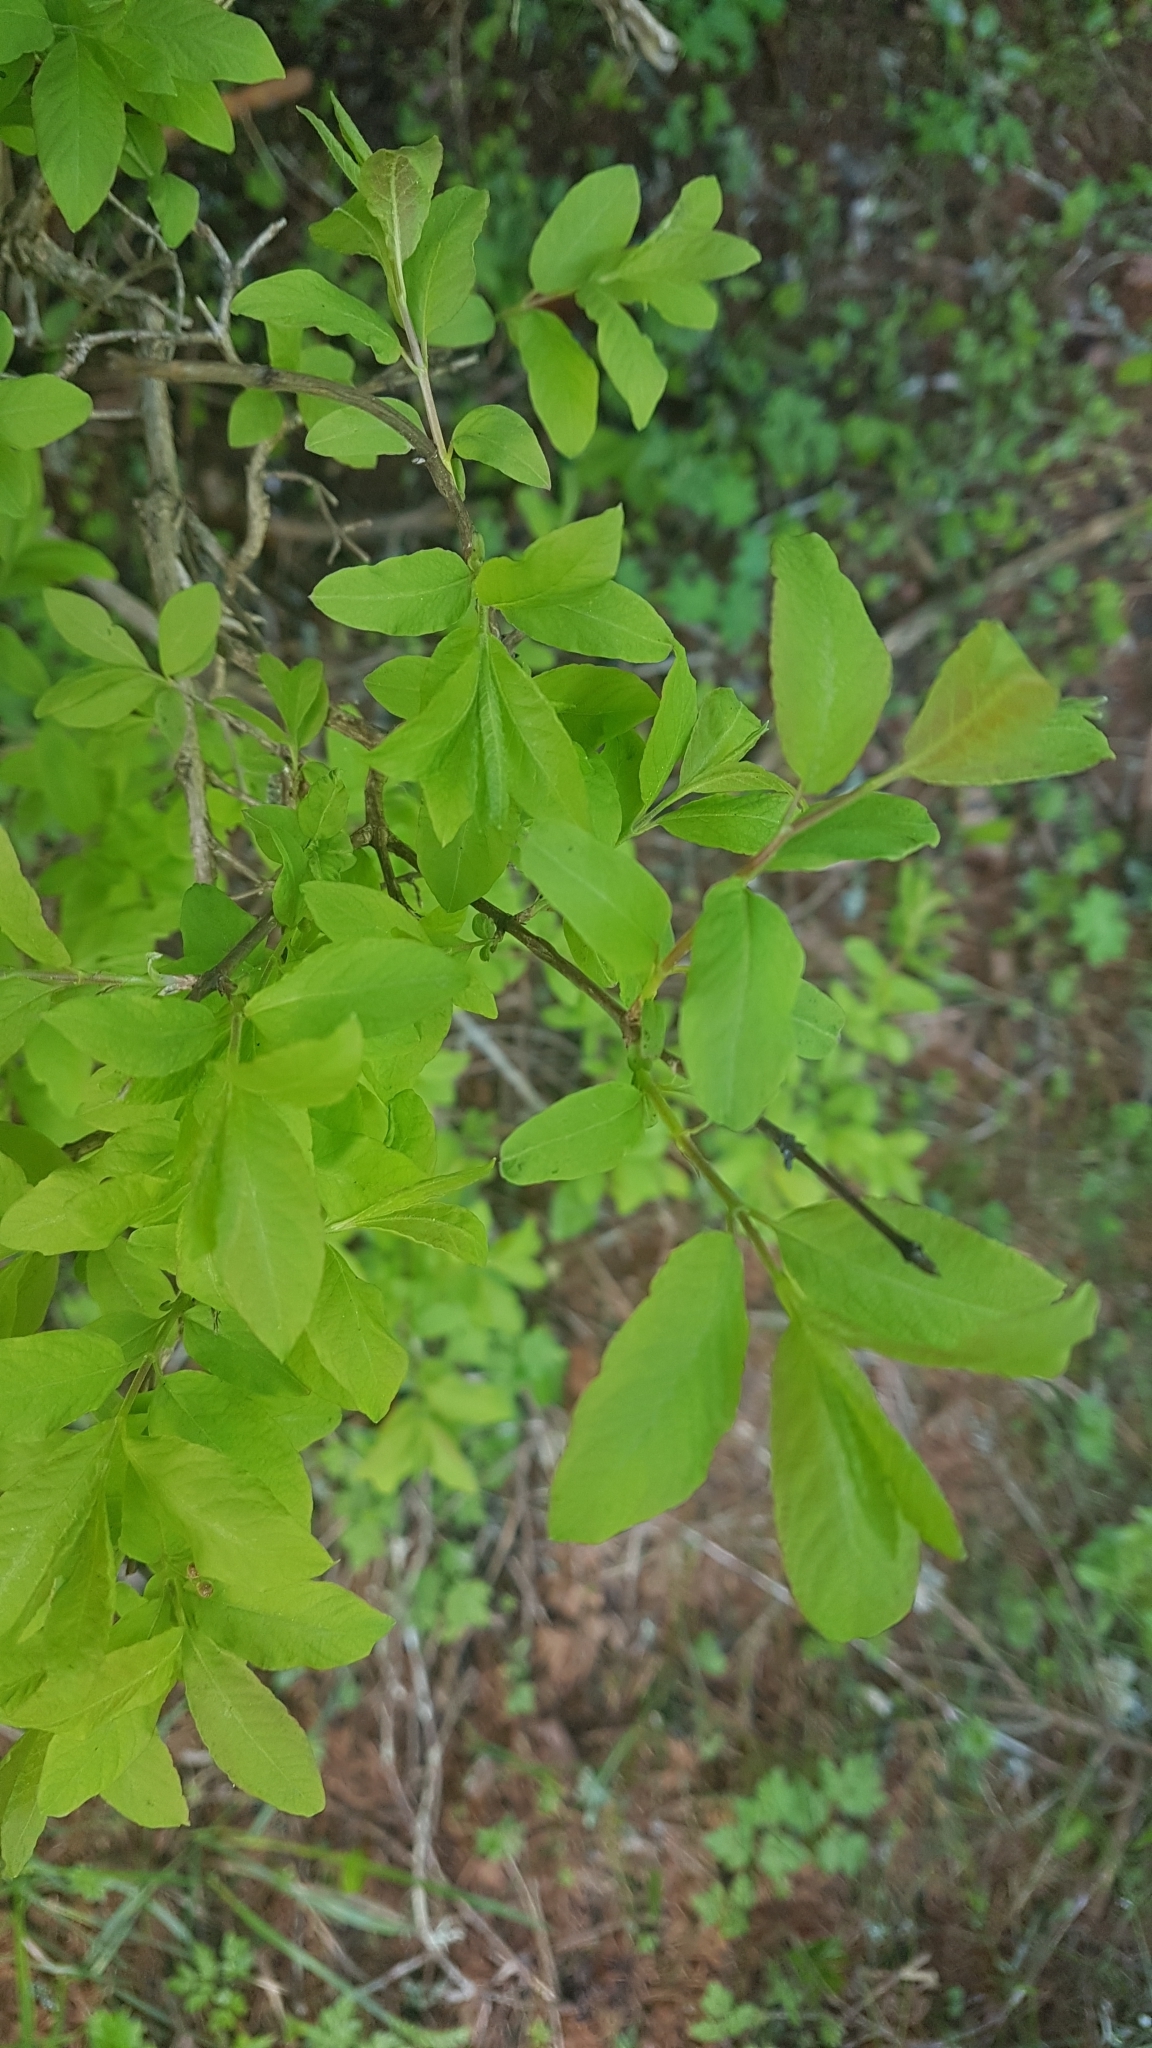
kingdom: Plantae
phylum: Tracheophyta
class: Magnoliopsida
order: Dipsacales
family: Caprifoliaceae
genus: Lonicera
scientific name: Lonicera caerulea
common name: Blue honeysuckle
